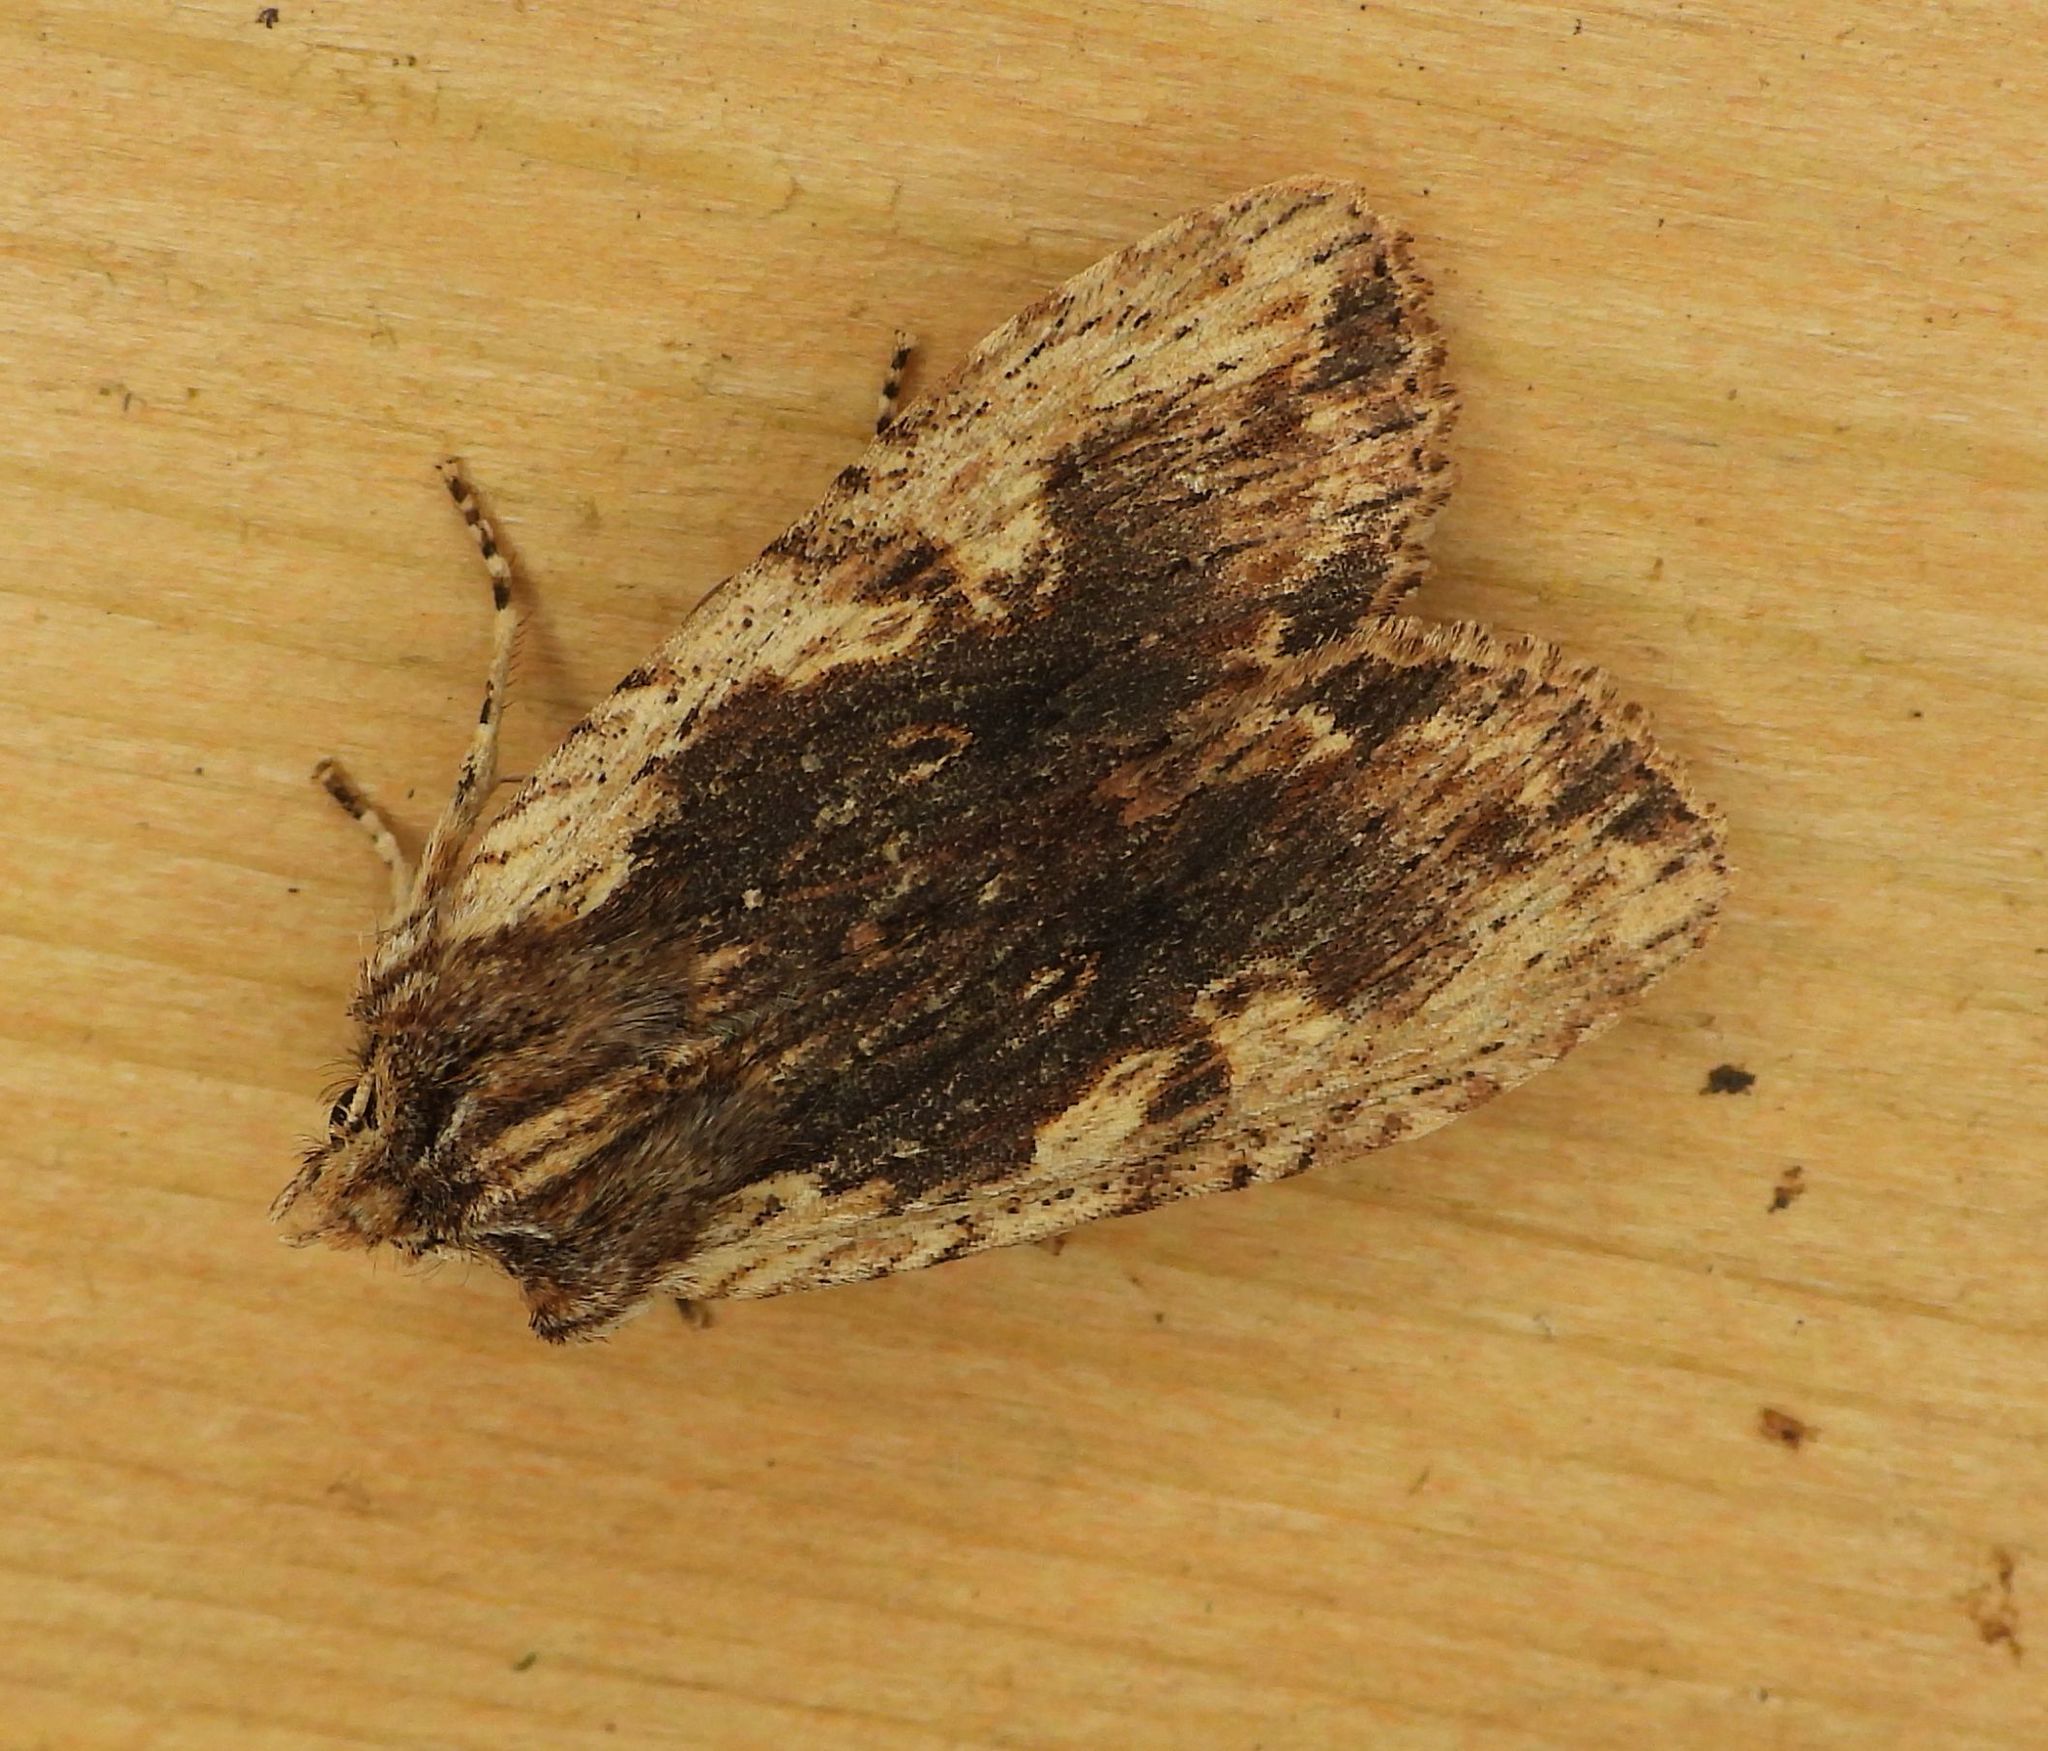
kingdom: Animalia
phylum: Arthropoda
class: Insecta
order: Lepidoptera
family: Noctuidae
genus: Lithophane
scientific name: Lithophane petulca
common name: Wanton pinion
